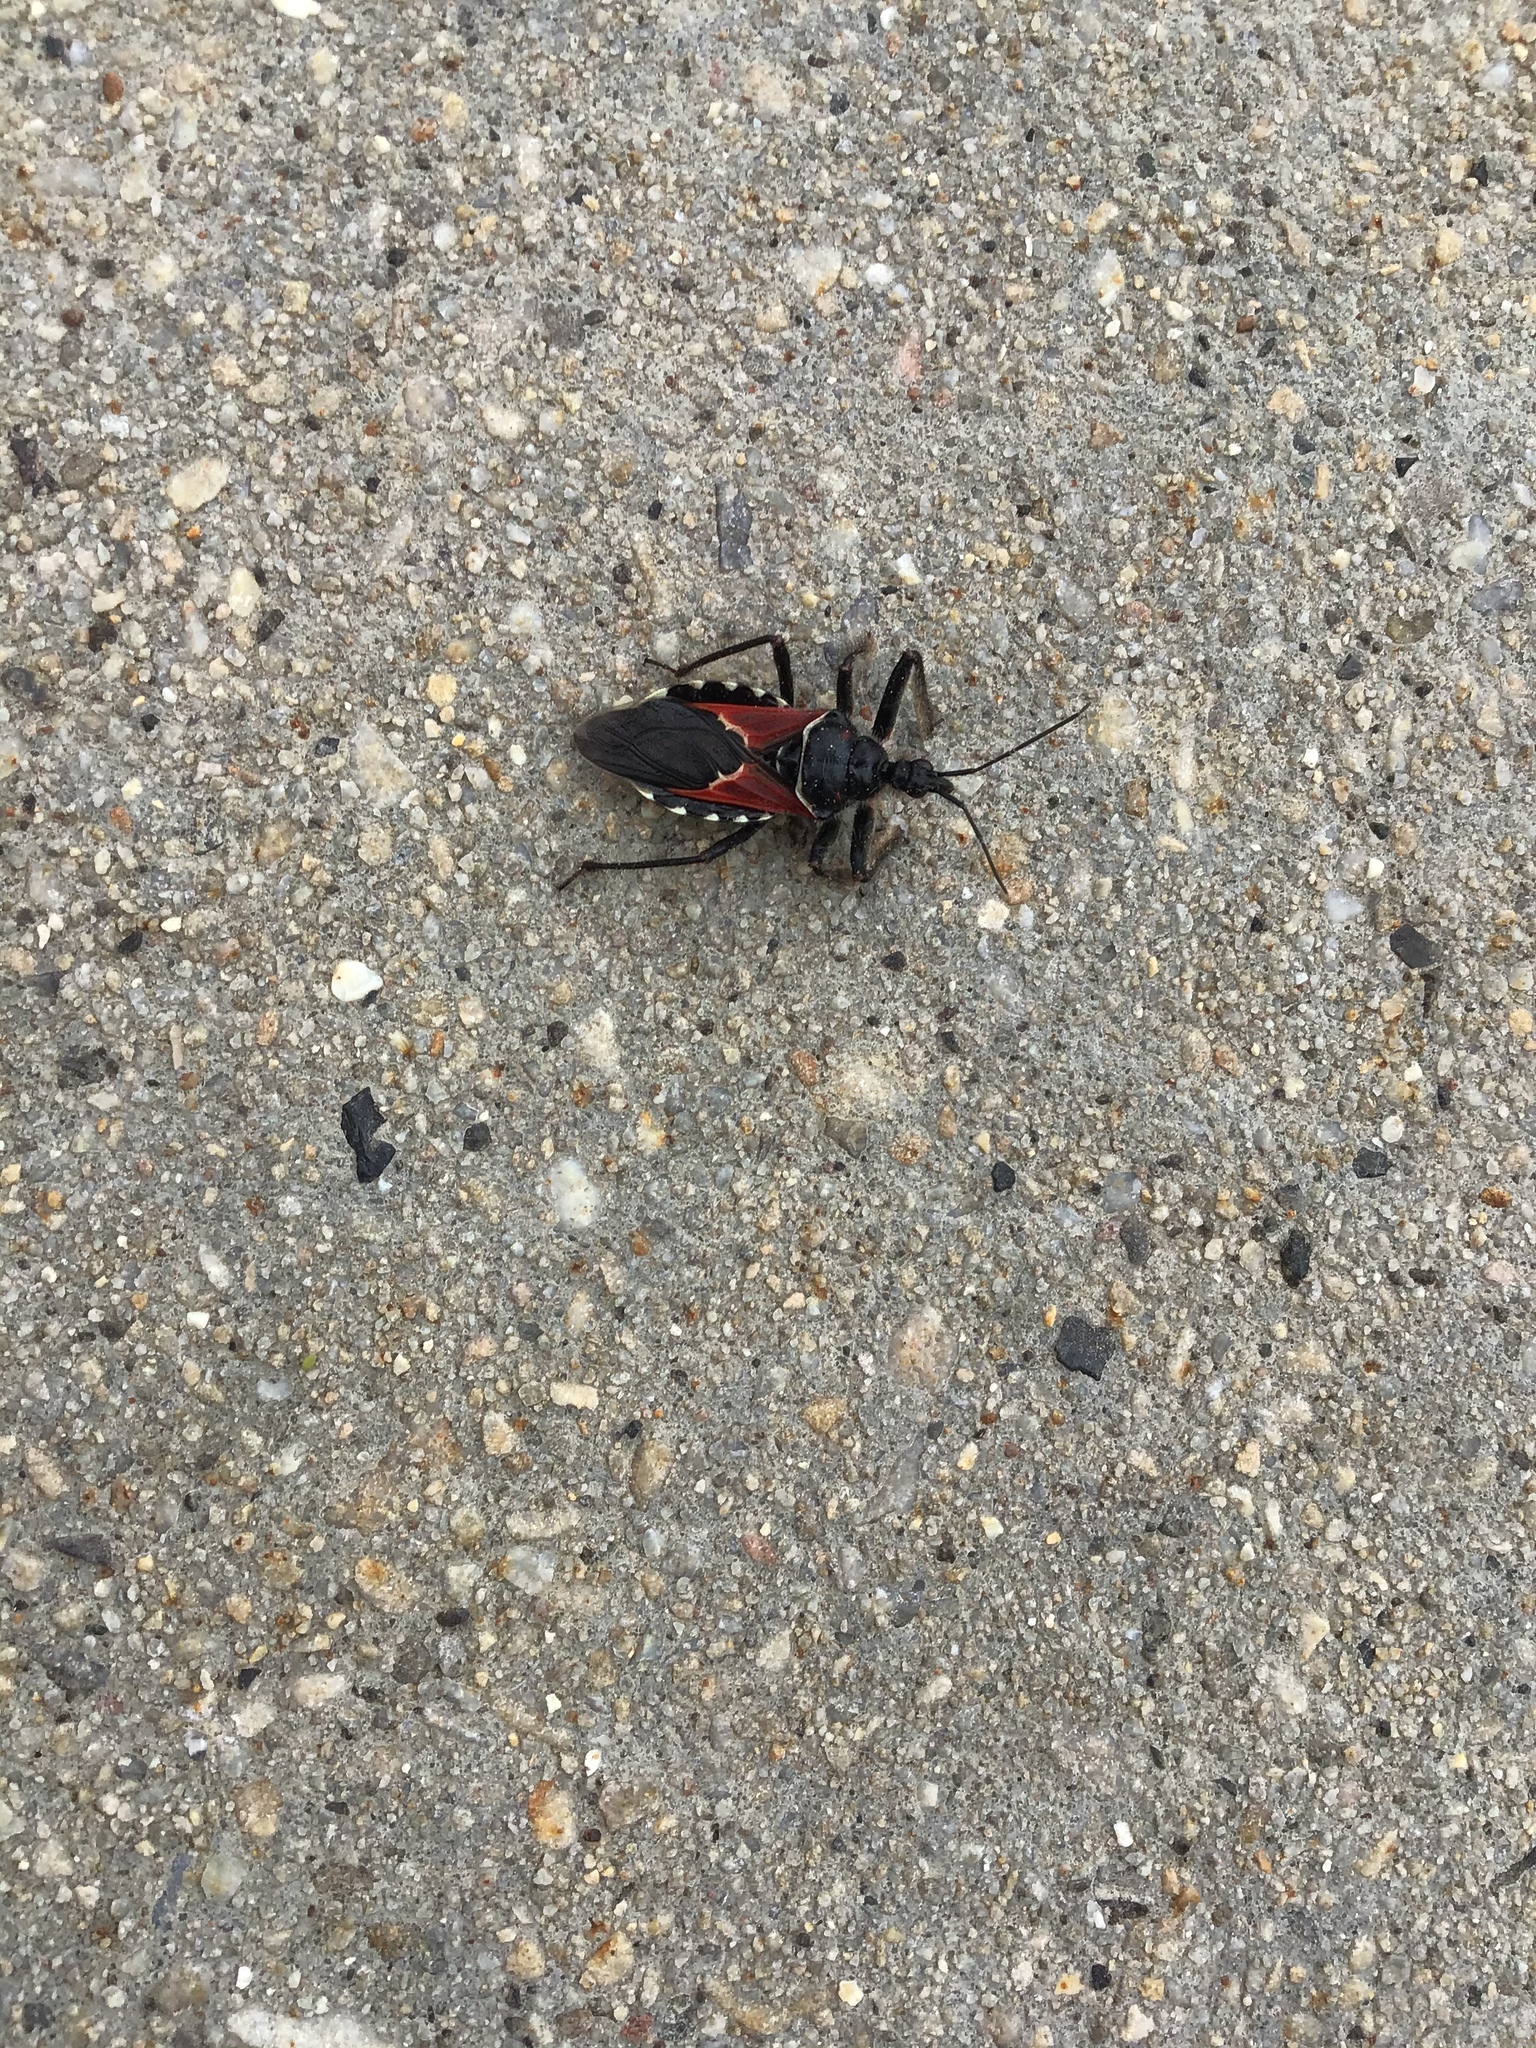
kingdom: Animalia
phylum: Arthropoda
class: Insecta
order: Hemiptera
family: Reduviidae
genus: Apiomerus
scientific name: Apiomerus montanus
